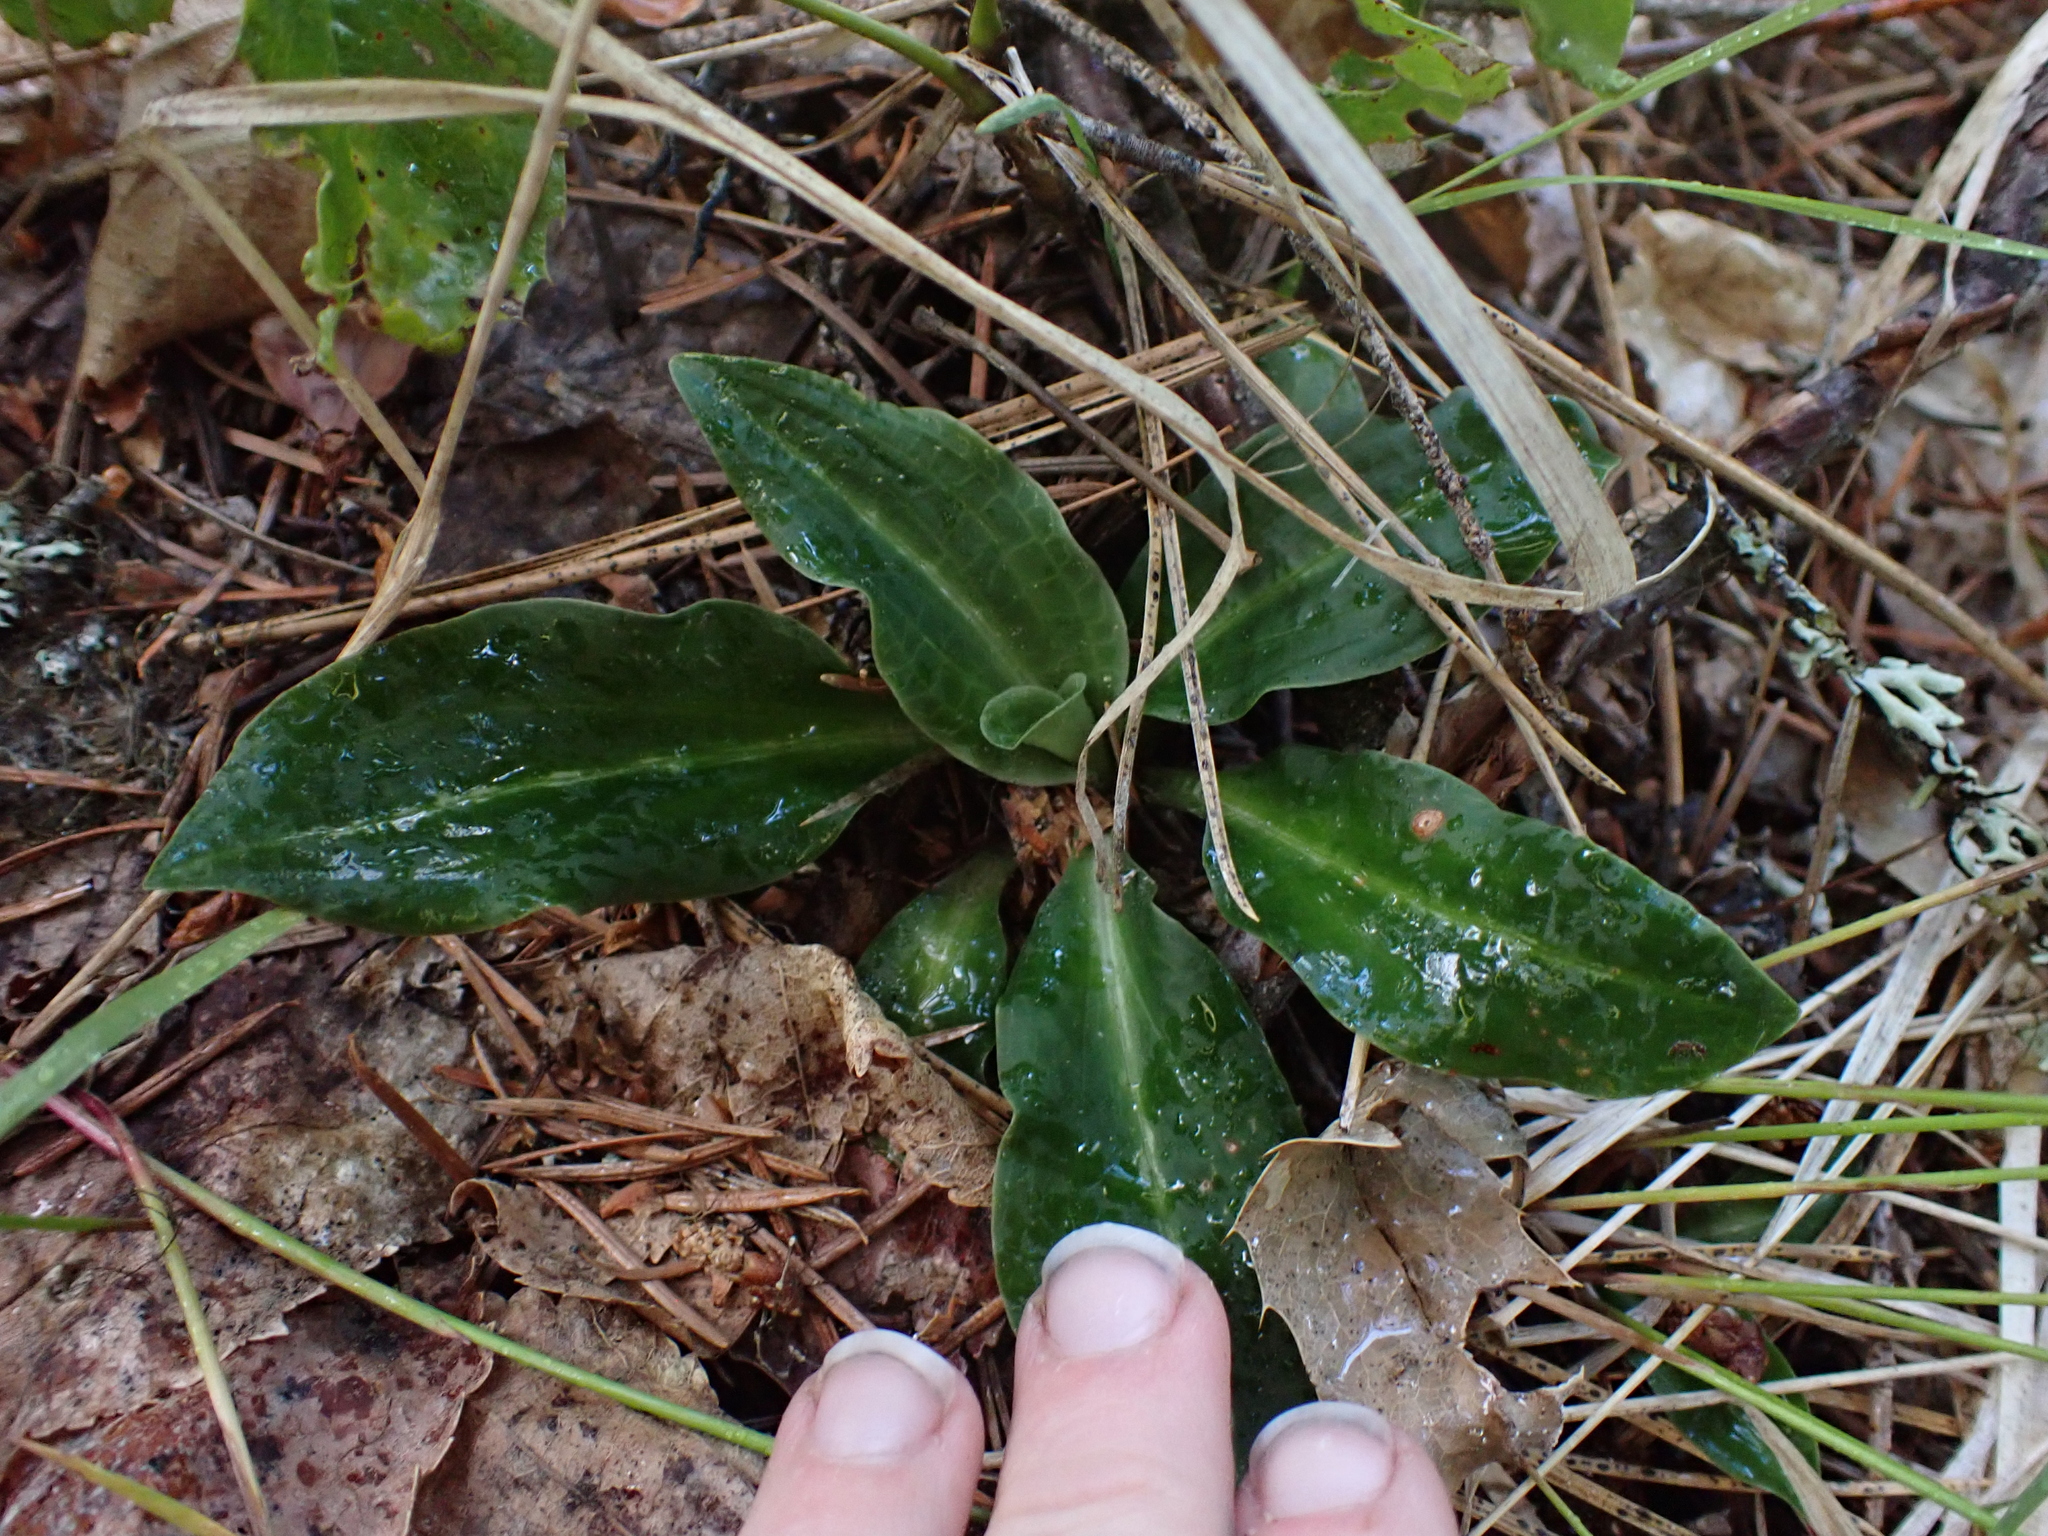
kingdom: Plantae
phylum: Tracheophyta
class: Liliopsida
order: Asparagales
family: Orchidaceae
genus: Goodyera
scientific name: Goodyera oblongifolia
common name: Giant rattlesnake-plantain
